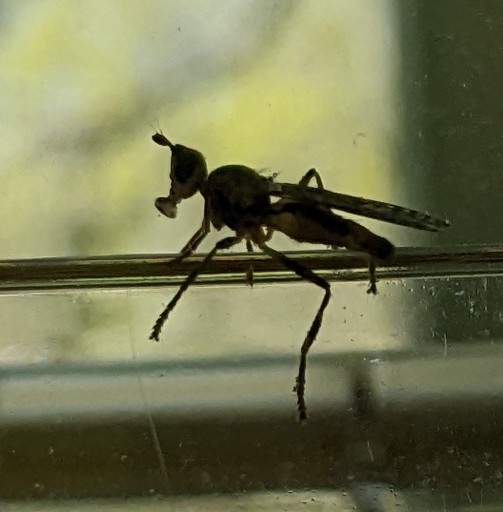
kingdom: Animalia
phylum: Arthropoda
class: Insecta
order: Diptera
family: Pyrgotidae
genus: Boreothrinax
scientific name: Boreothrinax
